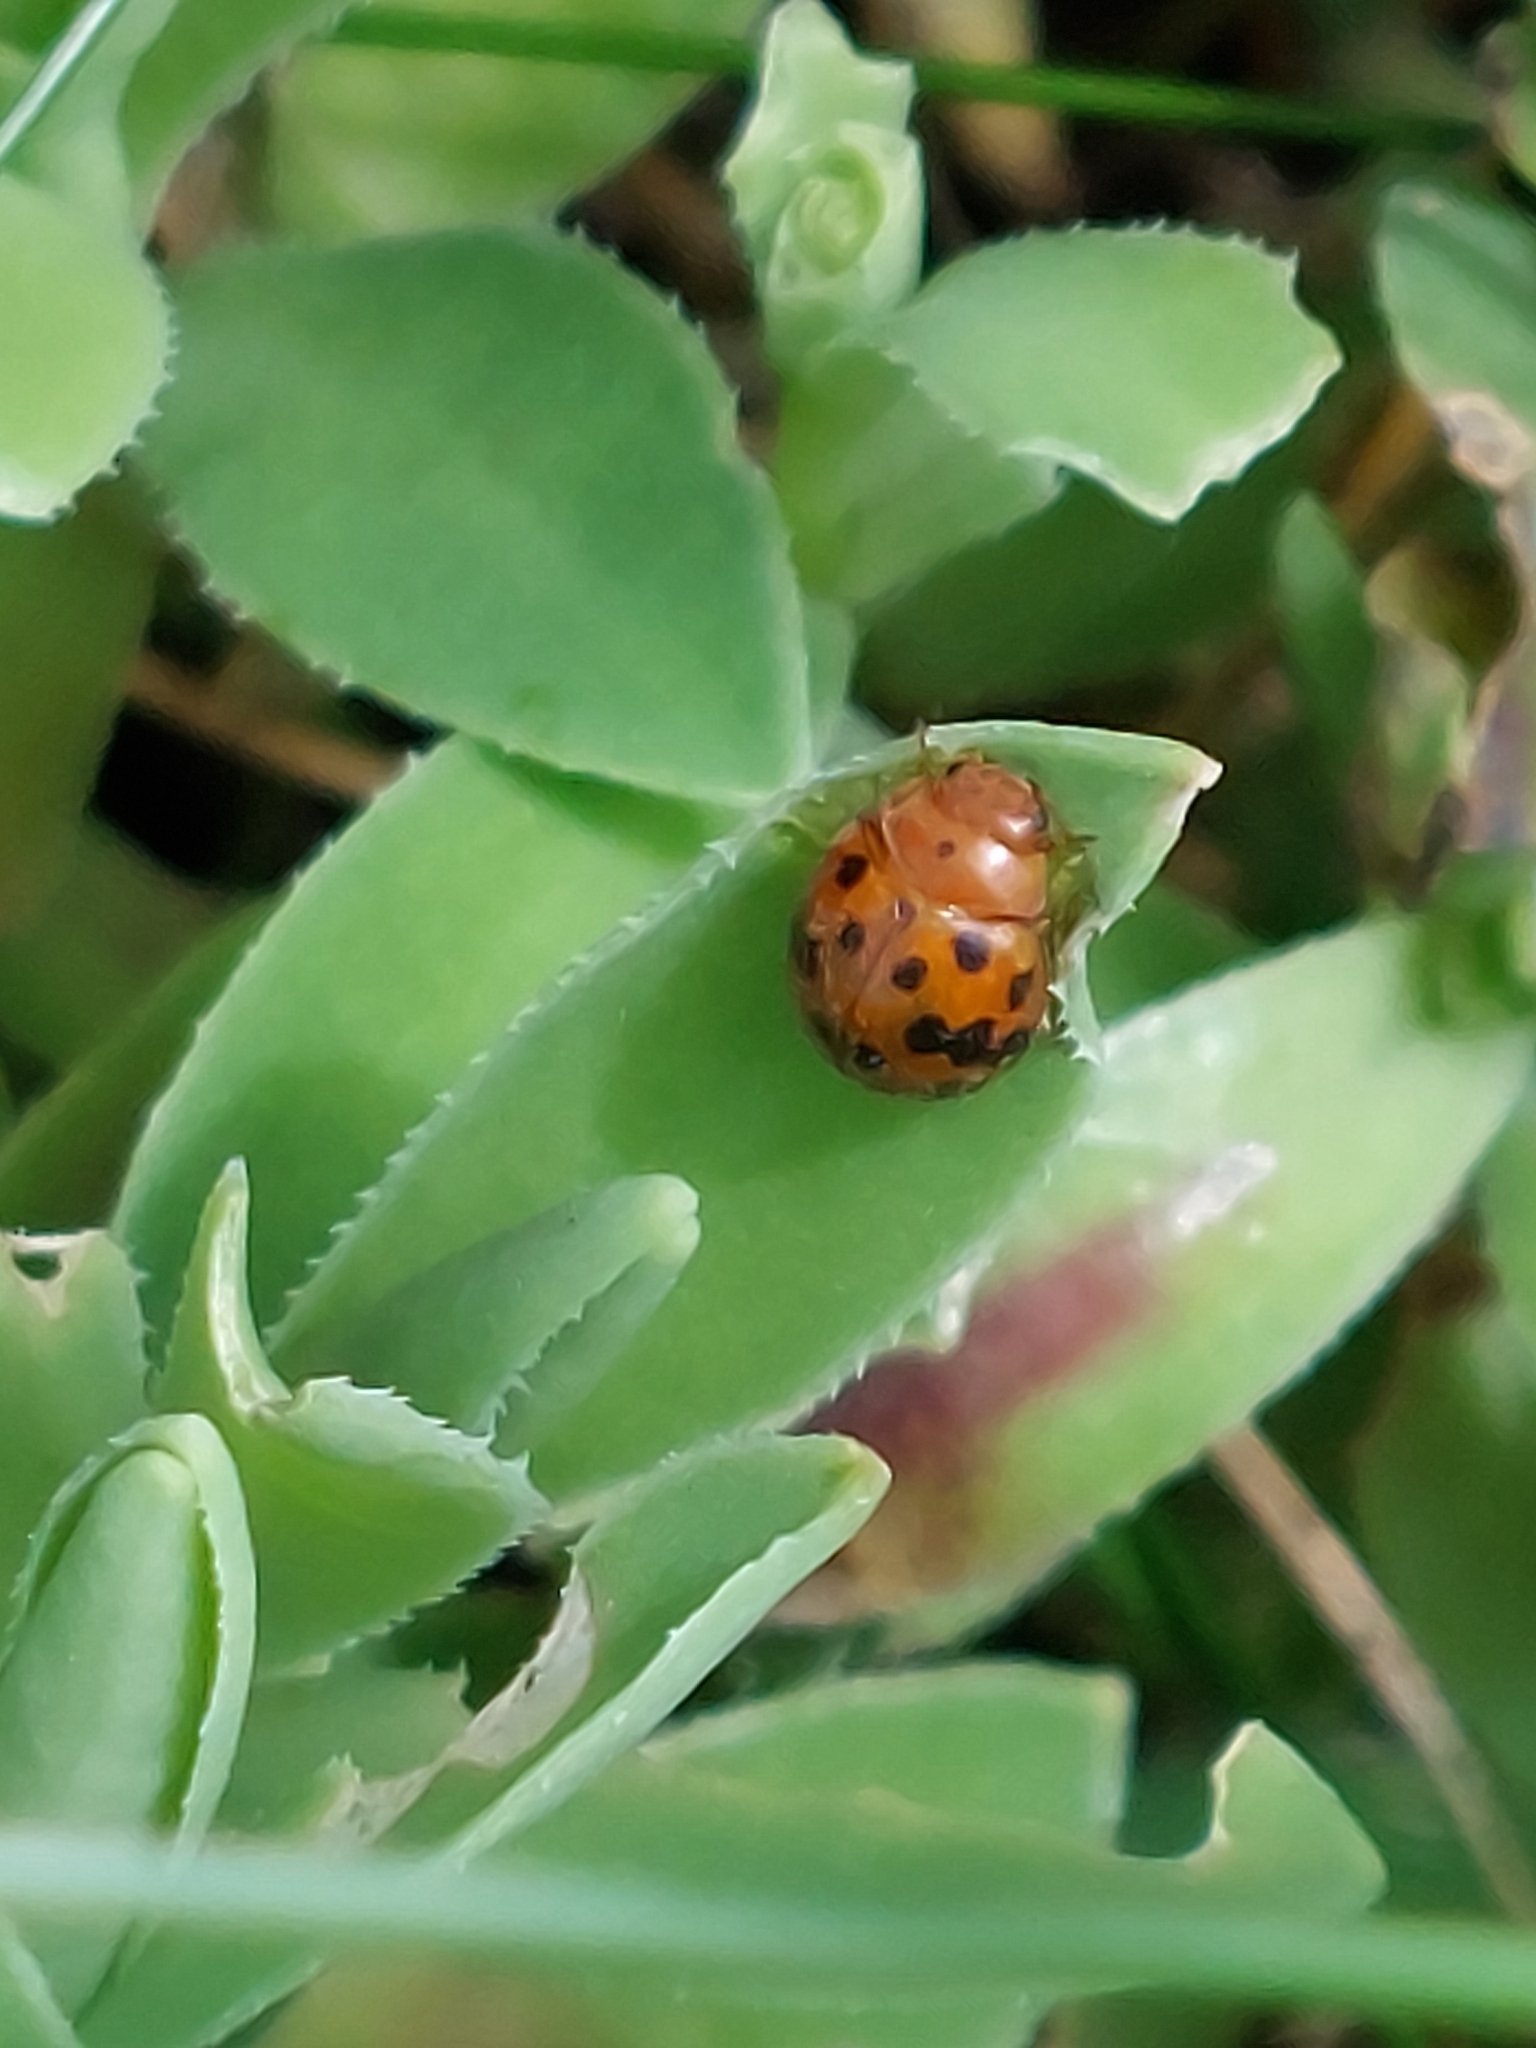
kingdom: Animalia
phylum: Arthropoda
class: Insecta
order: Coleoptera
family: Coccinellidae
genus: Subcoccinella
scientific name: Subcoccinella vigintiquatuorpunctata
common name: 24-spot ladybird
